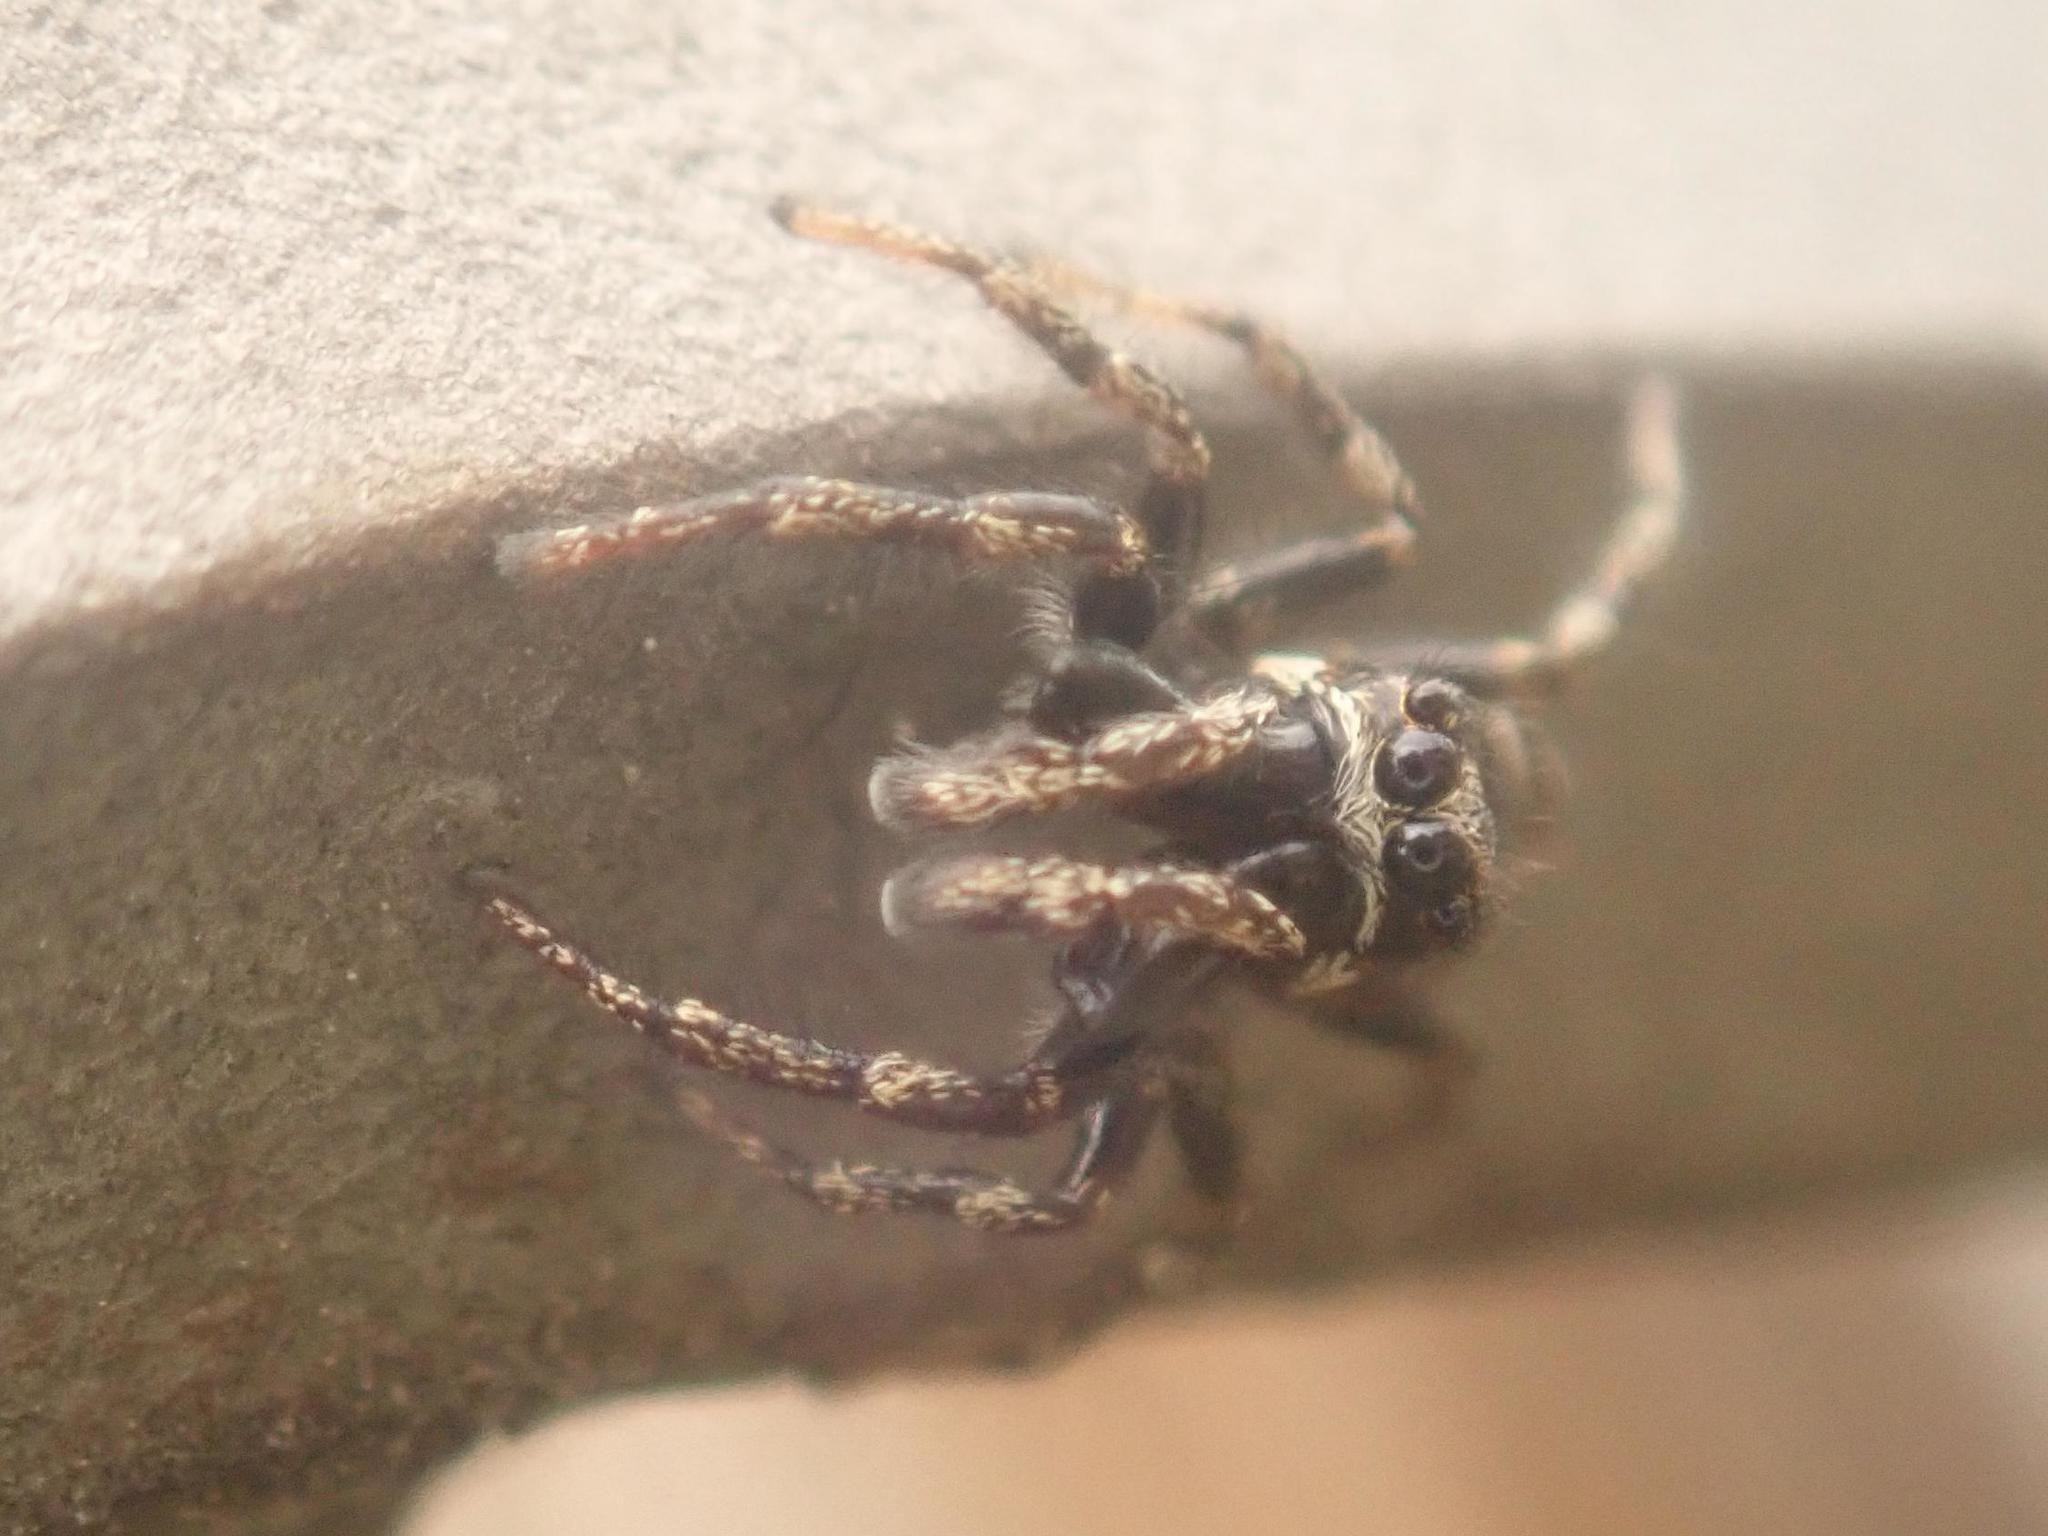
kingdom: Animalia
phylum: Arthropoda
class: Arachnida
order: Araneae
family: Salticidae
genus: Salticus
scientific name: Salticus scenicus
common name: Zebra jumper
